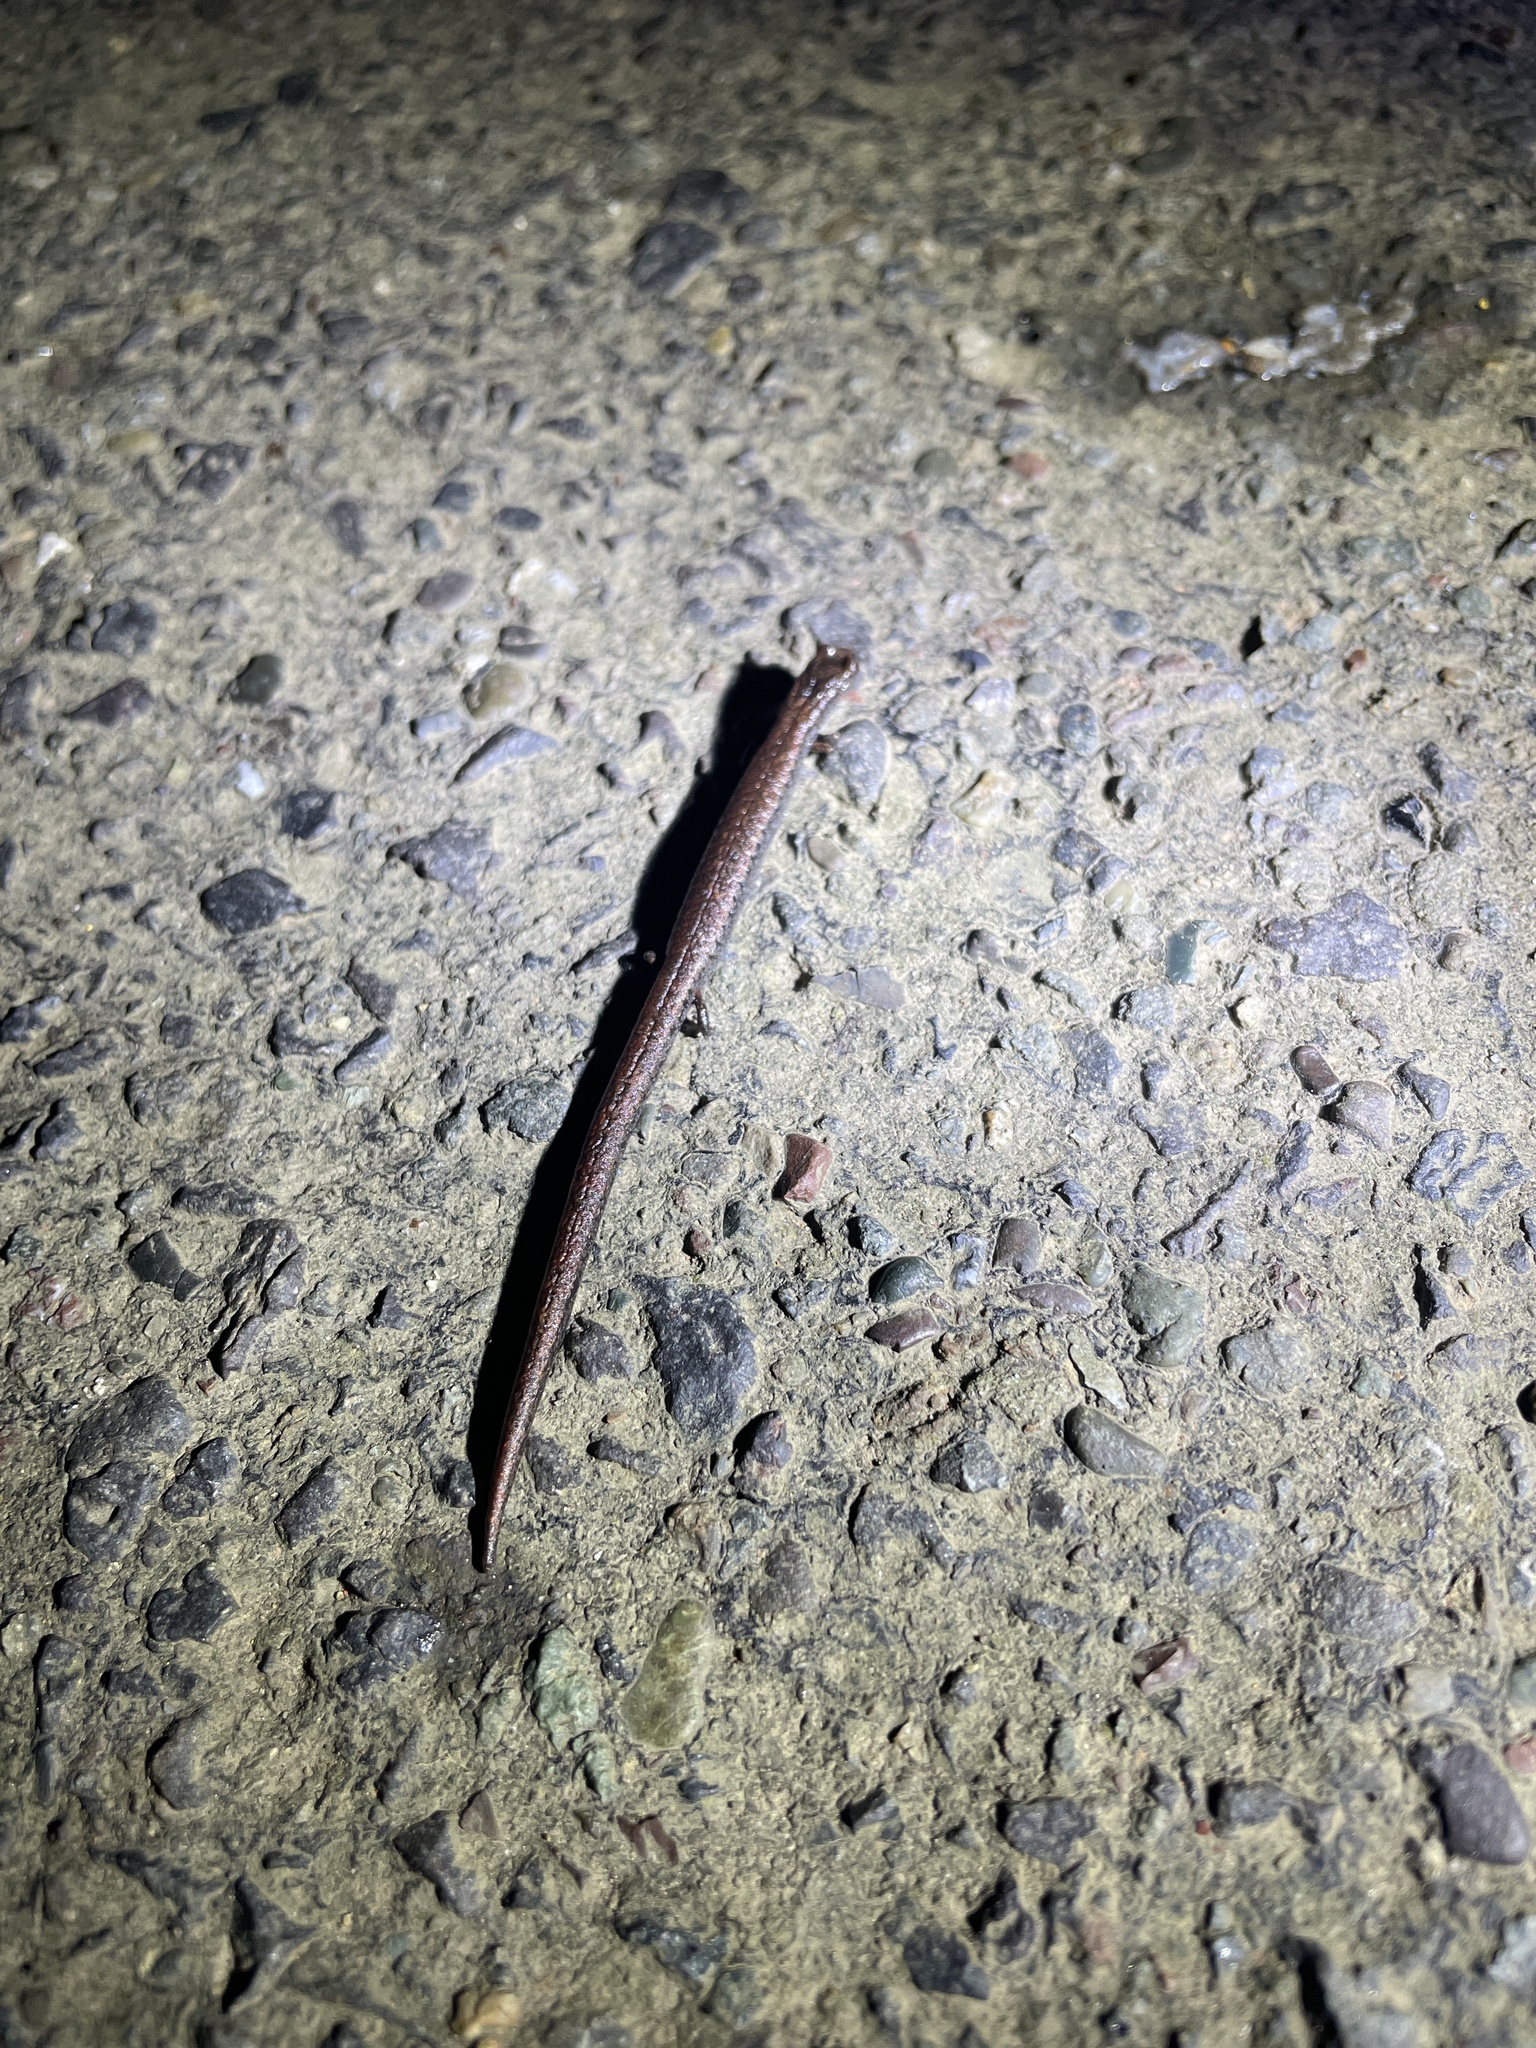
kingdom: Animalia
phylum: Chordata
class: Amphibia
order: Caudata
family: Plethodontidae
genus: Batrachoseps
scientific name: Batrachoseps attenuatus
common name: California slender salamander
